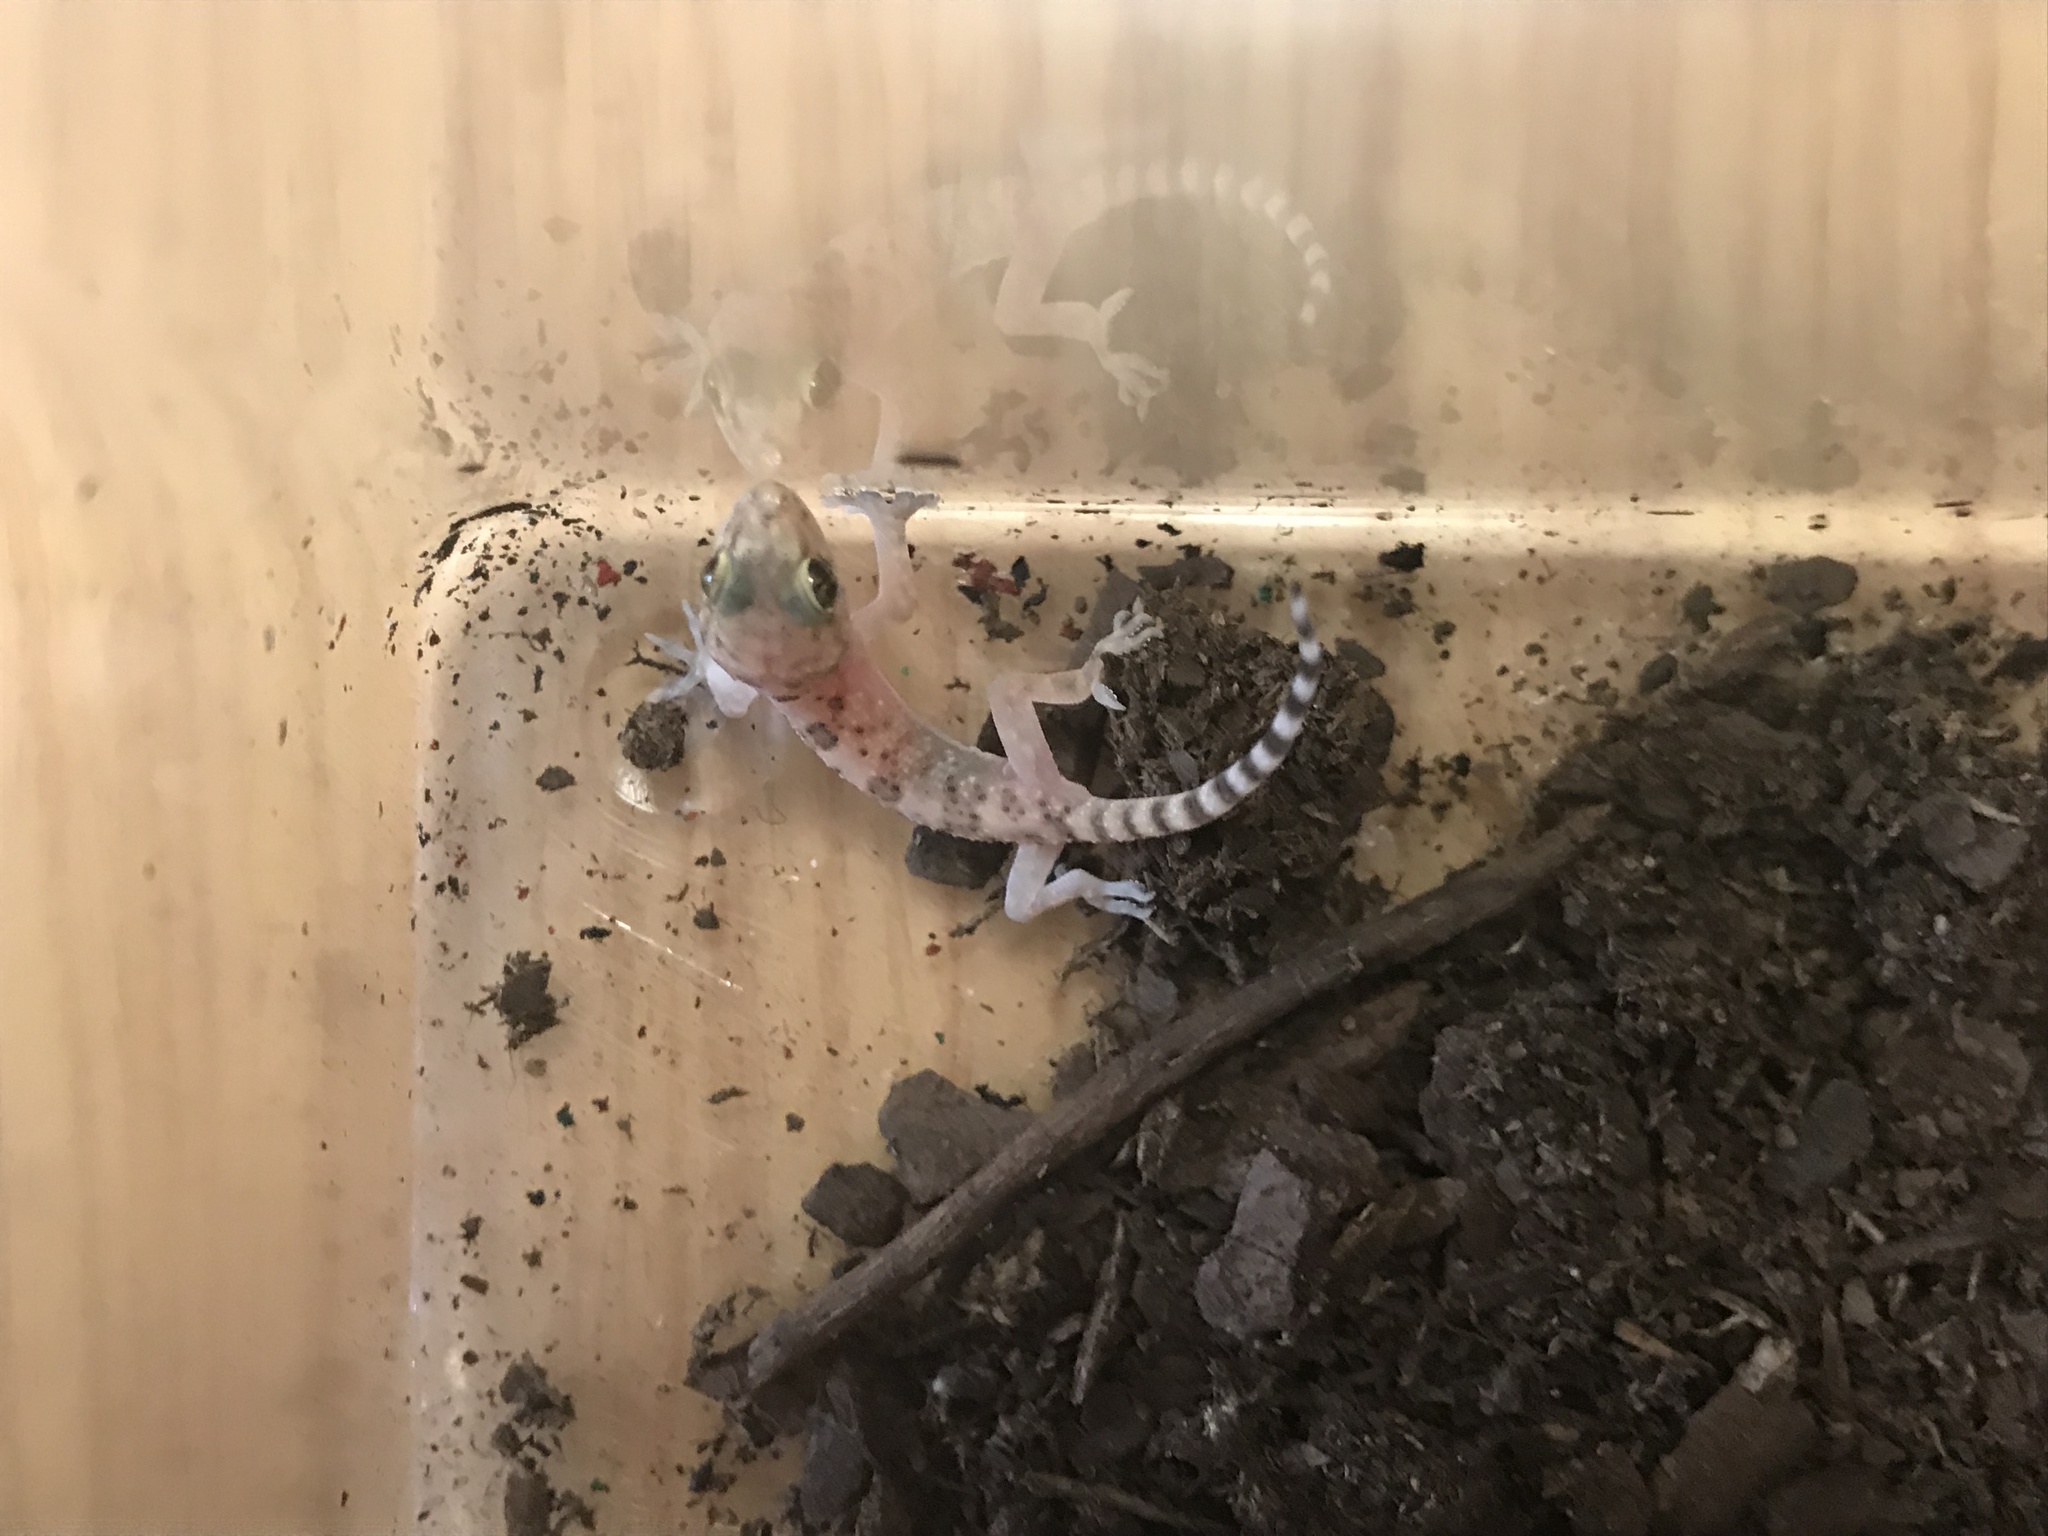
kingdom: Animalia
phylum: Chordata
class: Squamata
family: Gekkonidae
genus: Hemidactylus
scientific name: Hemidactylus turcicus
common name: Turkish gecko
